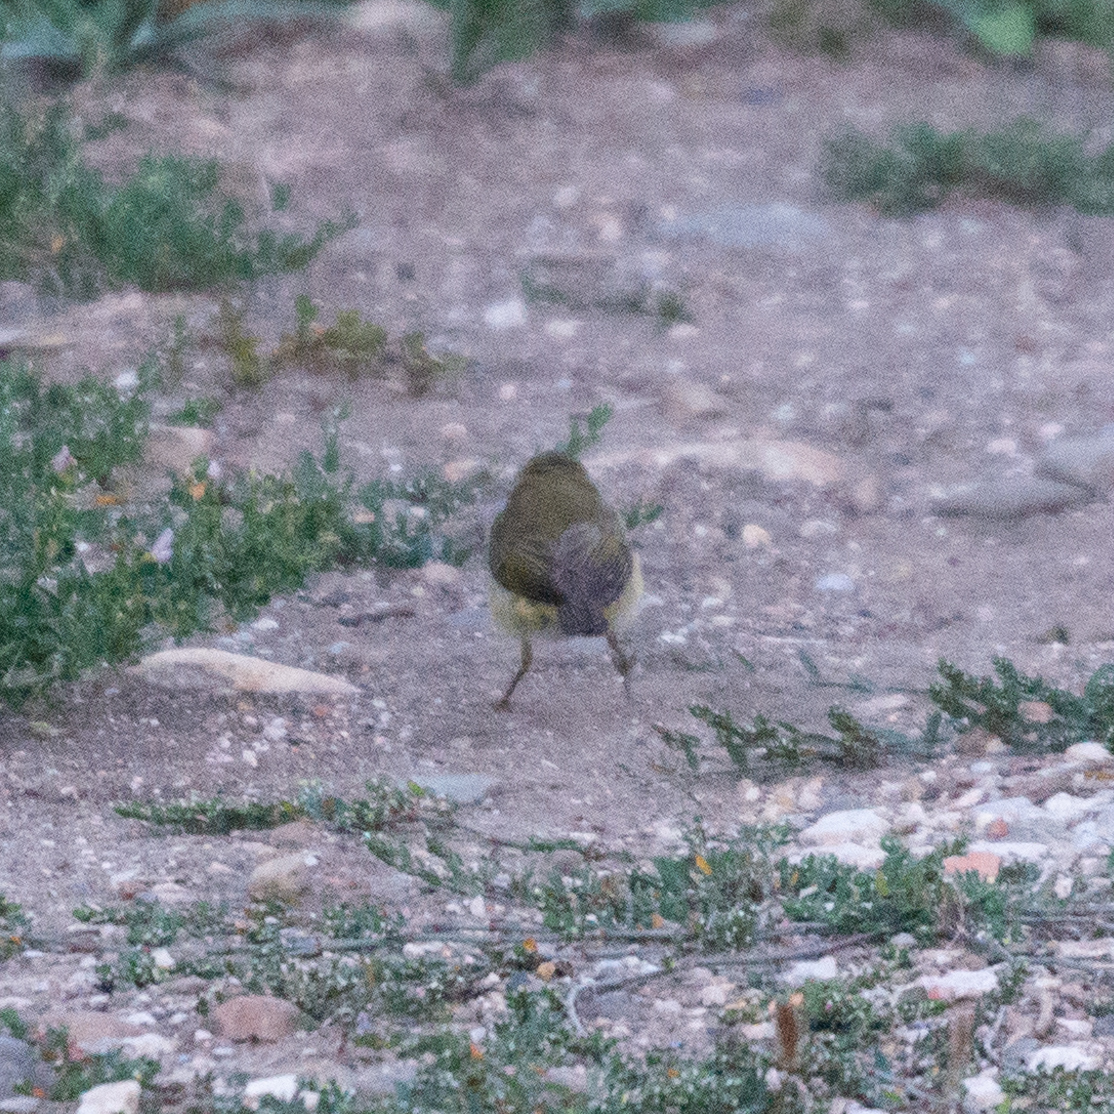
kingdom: Animalia
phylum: Chordata
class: Aves
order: Passeriformes
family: Phylloscopidae
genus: Phylloscopus
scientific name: Phylloscopus collybita
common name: Common chiffchaff
